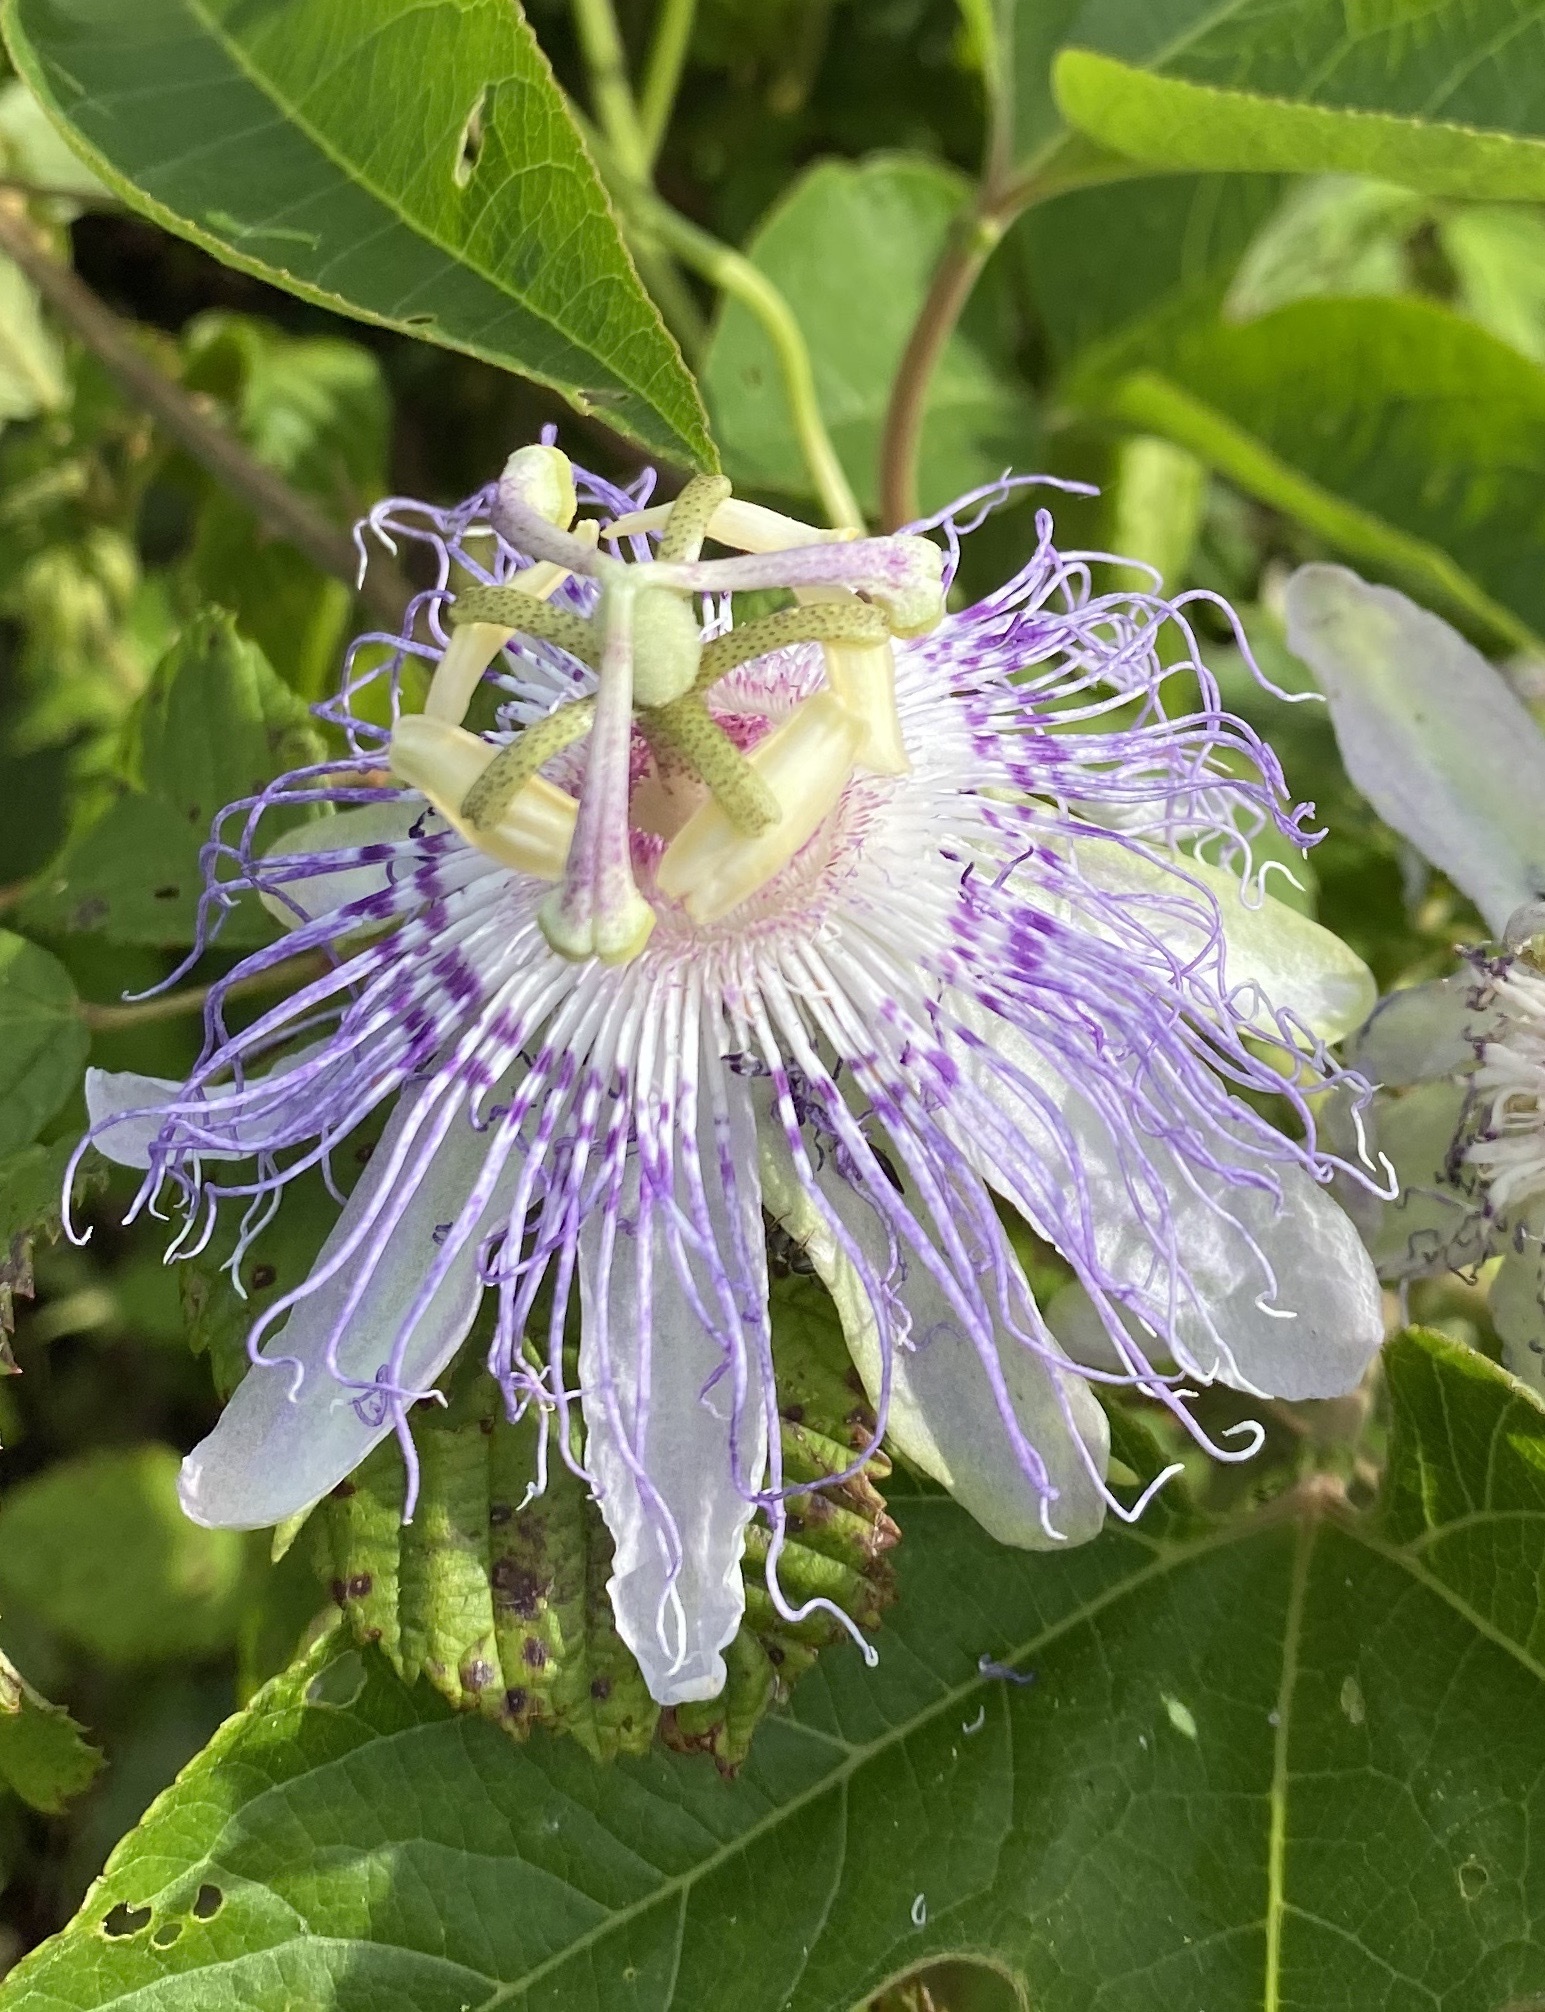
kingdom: Plantae
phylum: Tracheophyta
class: Magnoliopsida
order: Malpighiales
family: Passifloraceae
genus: Passiflora
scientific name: Passiflora incarnata
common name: Apricot-vine
